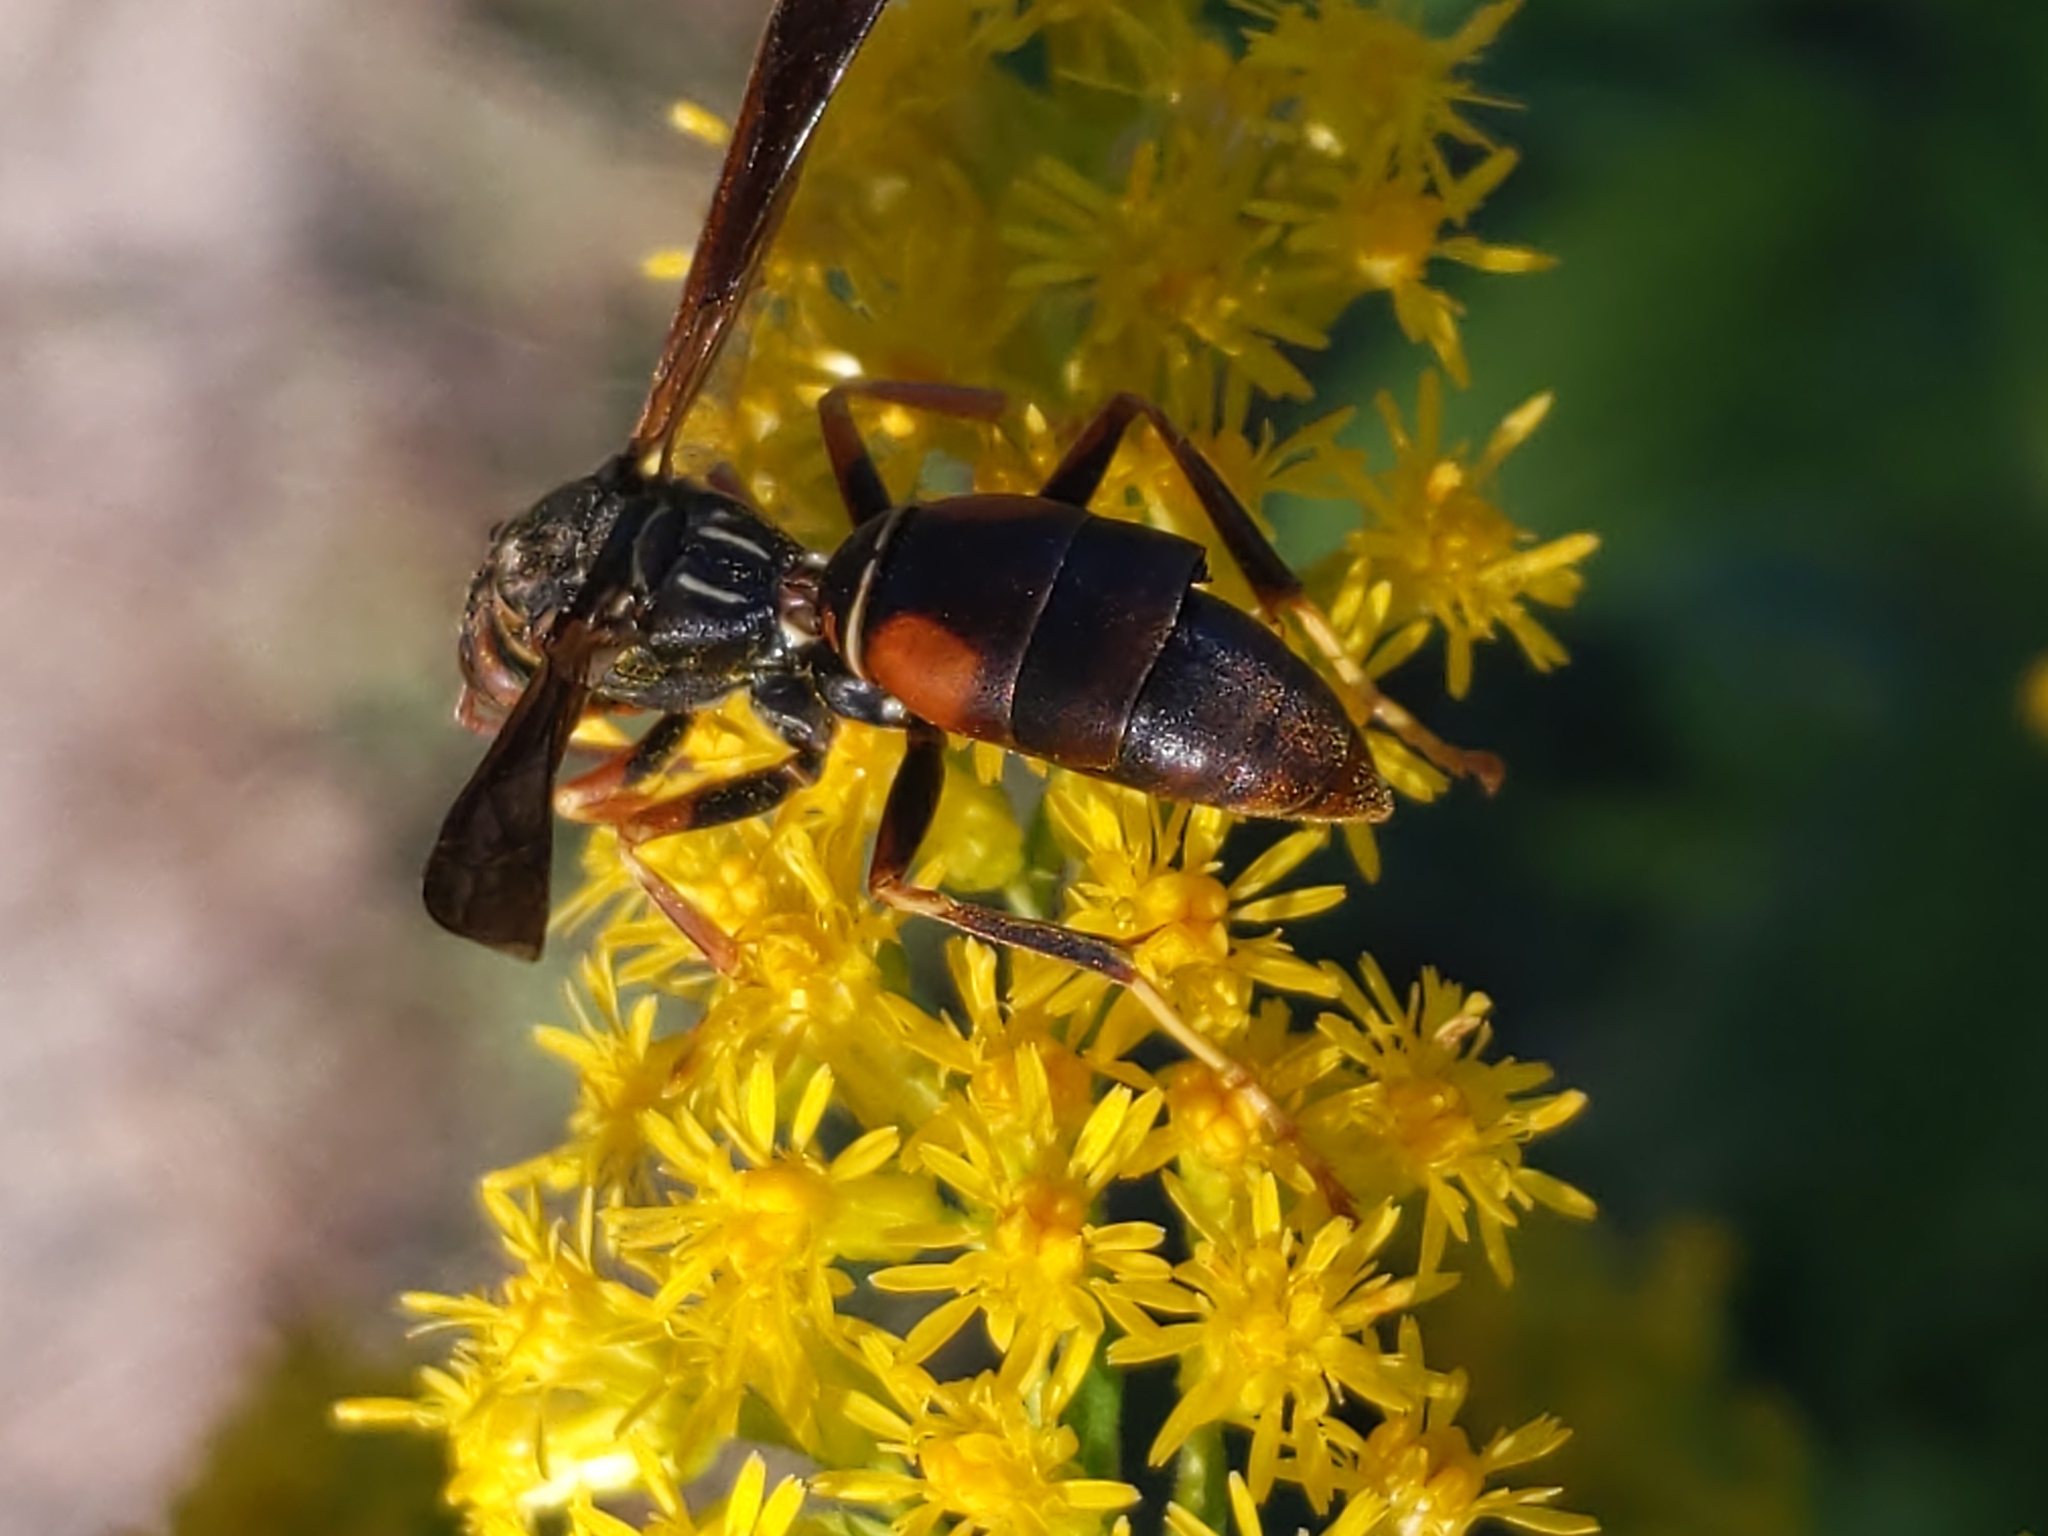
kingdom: Animalia
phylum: Arthropoda
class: Insecta
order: Strepsiptera
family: Xenidae
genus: Xenos
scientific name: Xenos pecki
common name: Twisted wing parasite
